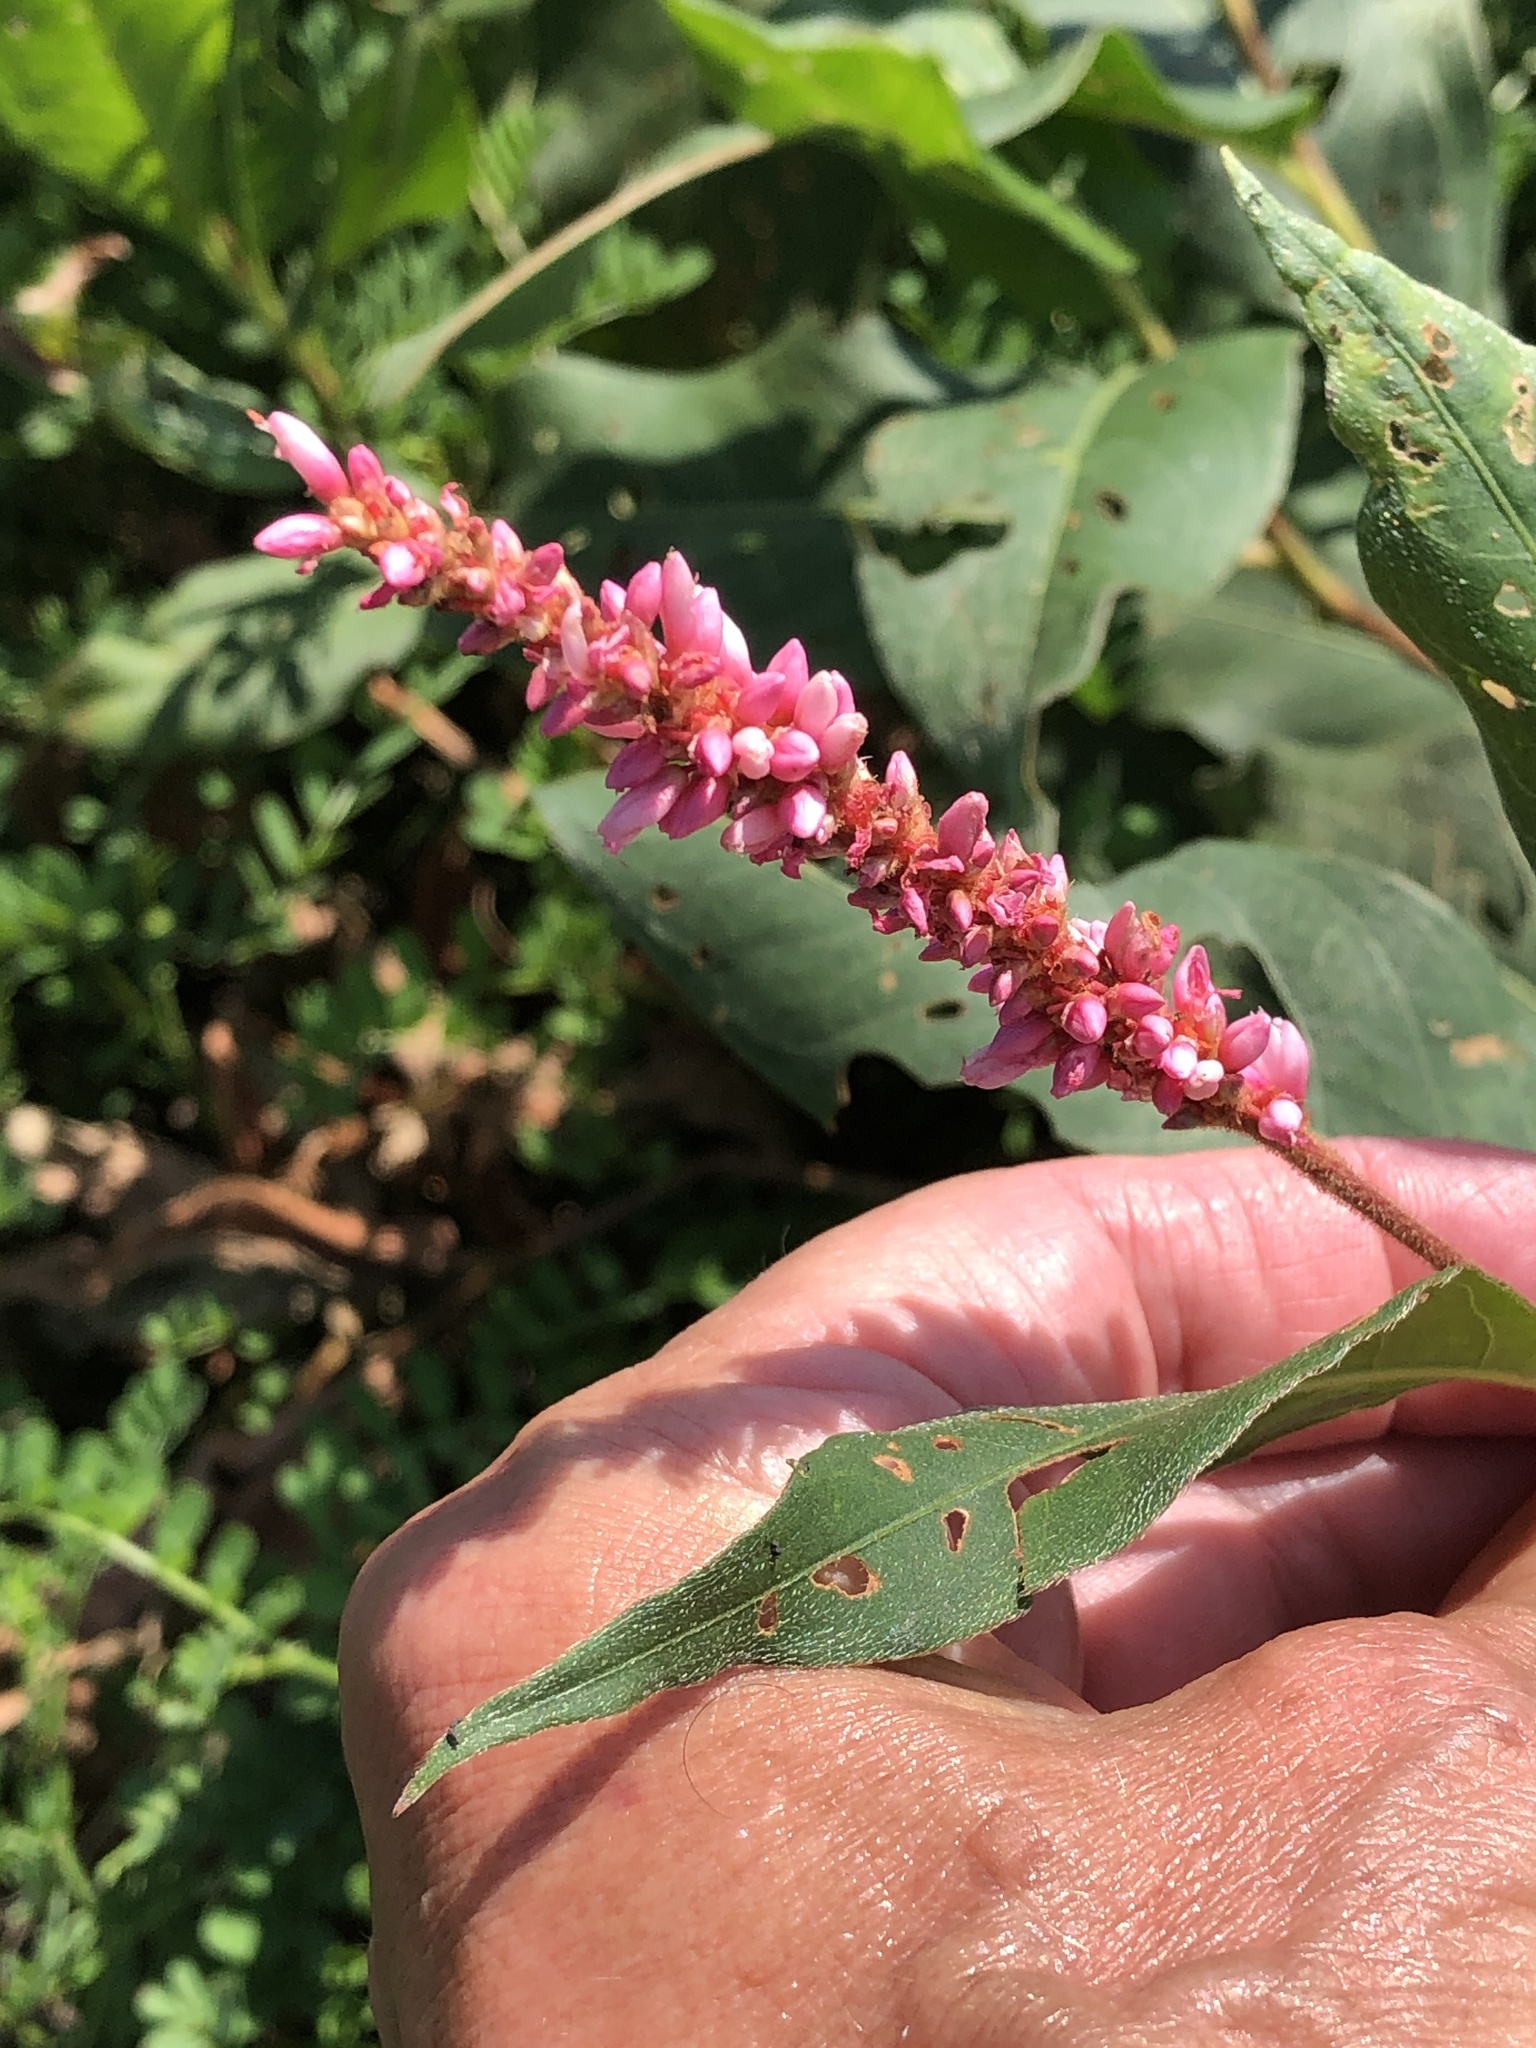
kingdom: Plantae
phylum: Tracheophyta
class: Magnoliopsida
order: Caryophyllales
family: Polygonaceae
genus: Persicaria
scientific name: Persicaria amphibia
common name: Amphibious bistort
